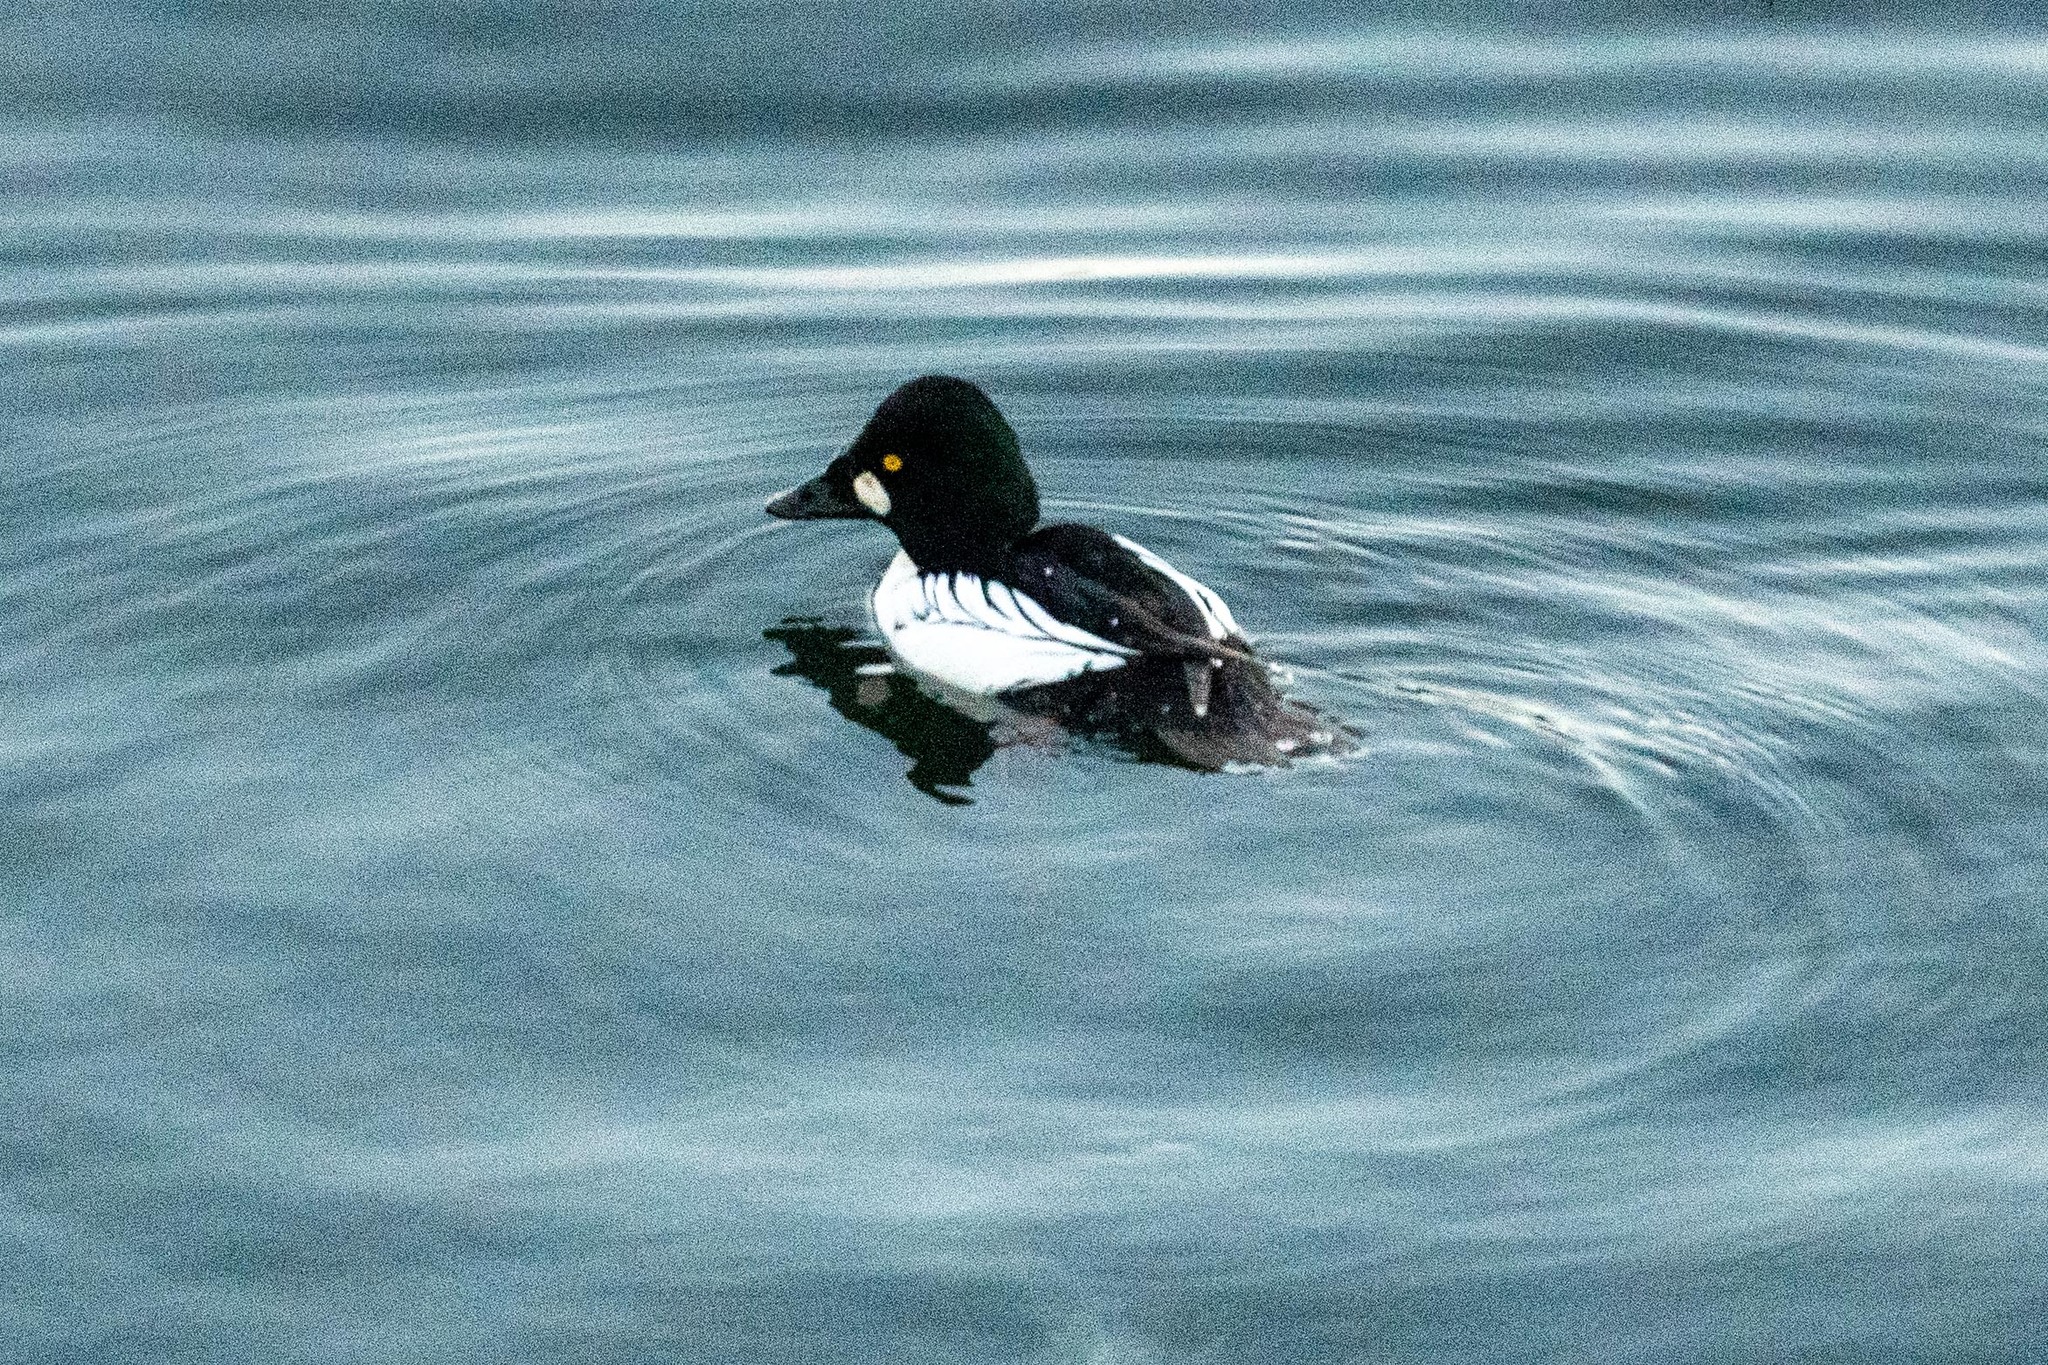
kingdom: Animalia
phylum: Chordata
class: Aves
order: Anseriformes
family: Anatidae
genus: Bucephala
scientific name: Bucephala clangula
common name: Common goldeneye
